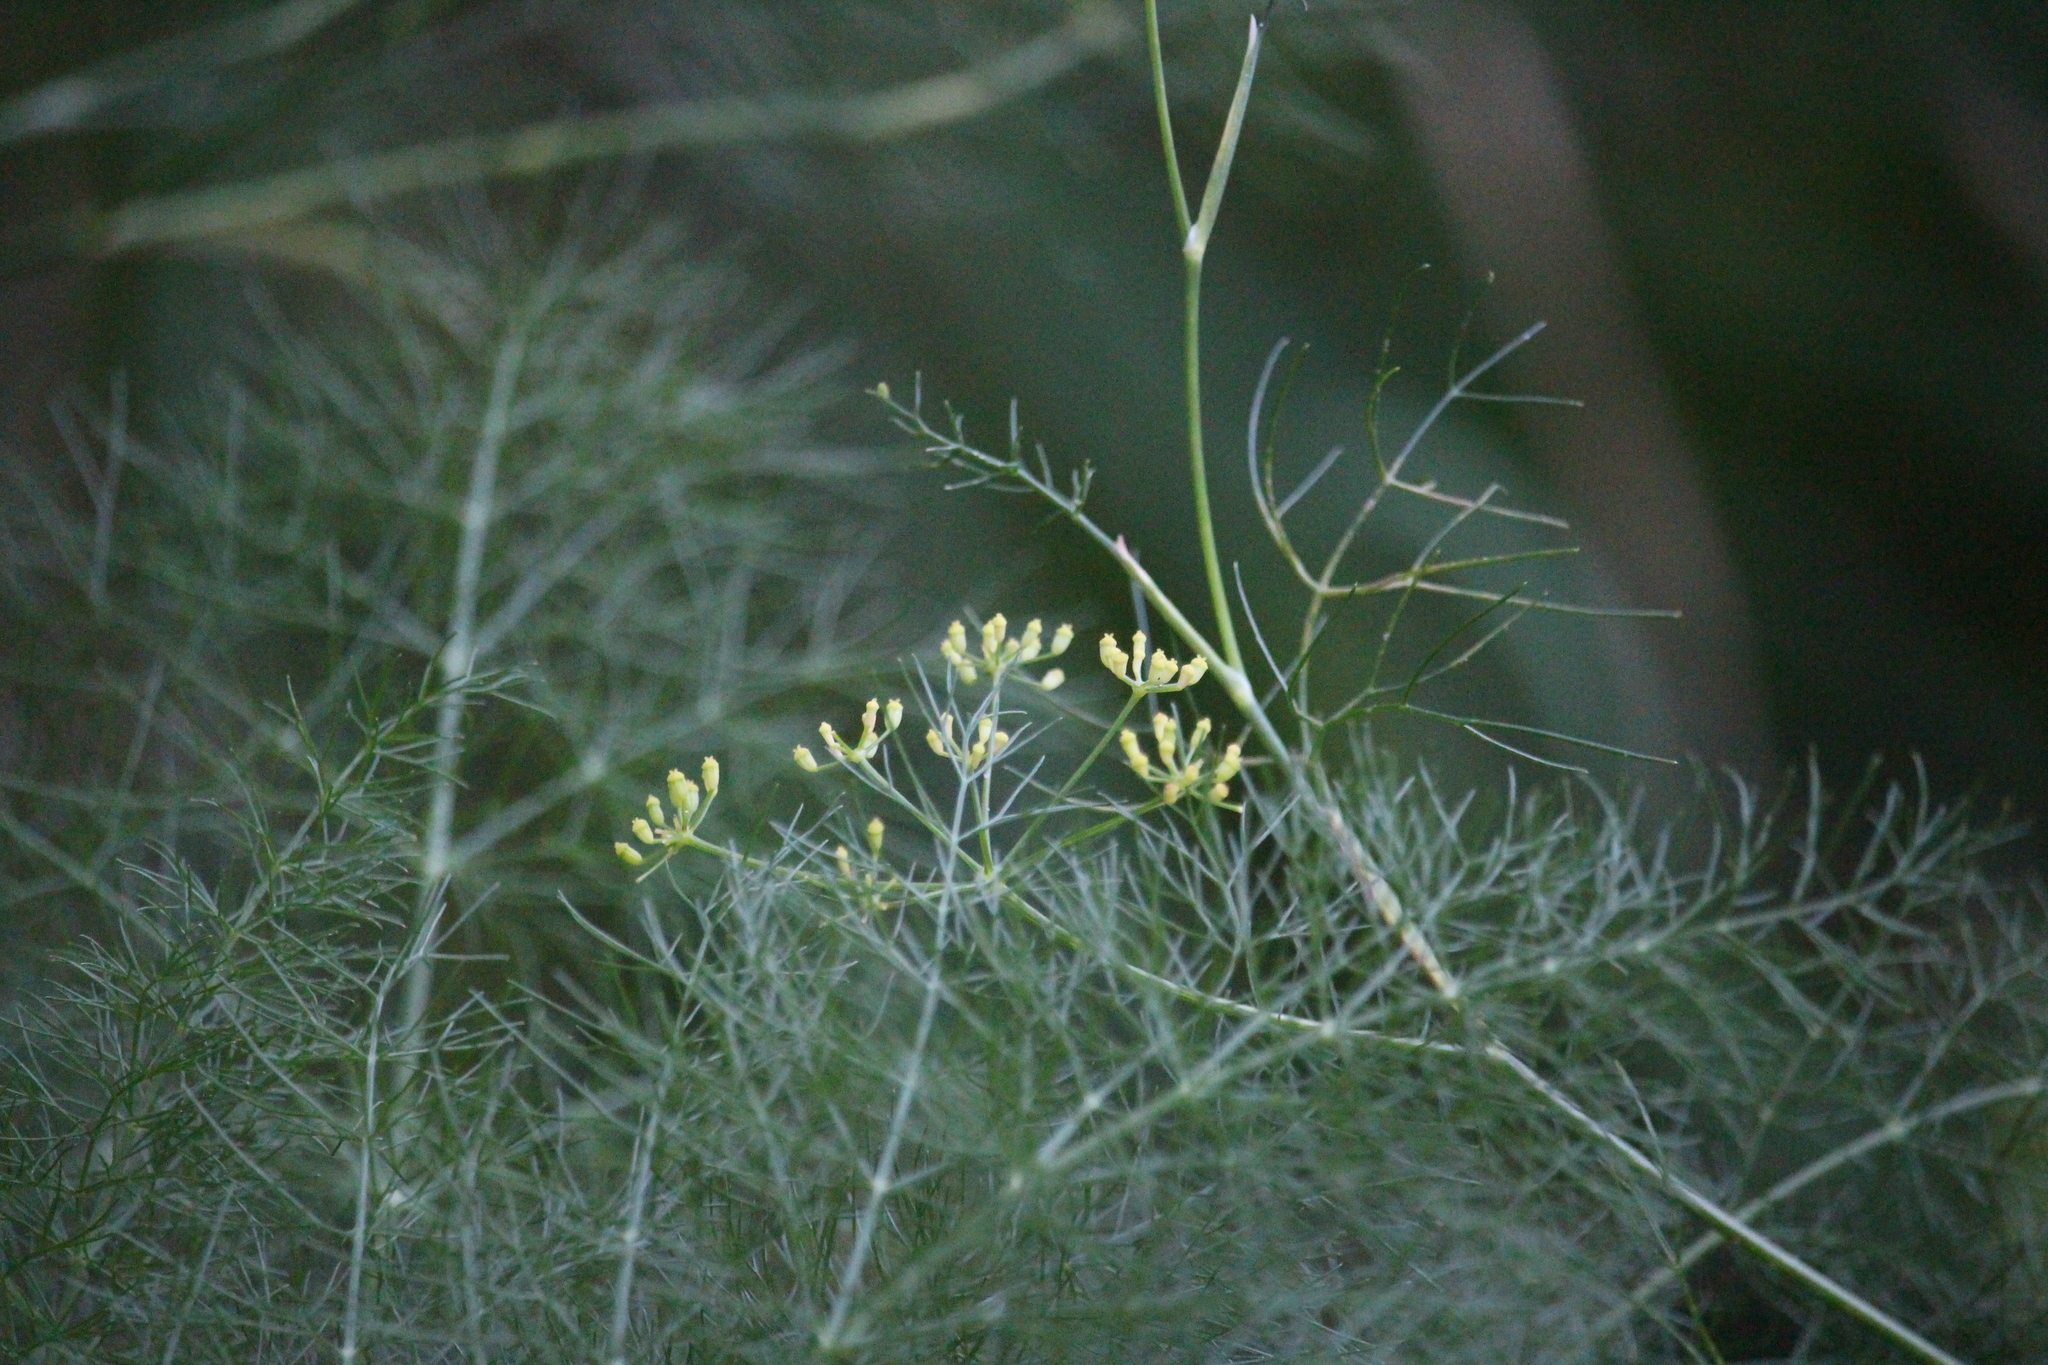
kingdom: Plantae
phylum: Tracheophyta
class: Magnoliopsida
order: Apiales
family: Apiaceae
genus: Foeniculum
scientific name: Foeniculum vulgare
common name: Fennel
